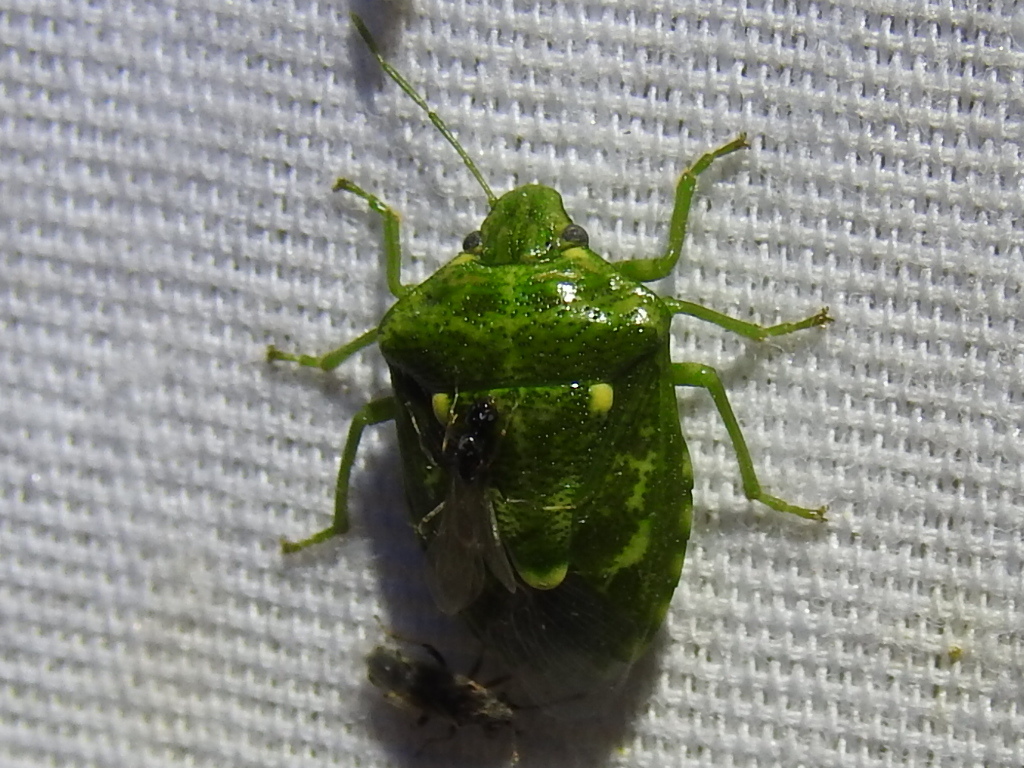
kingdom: Animalia
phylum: Arthropoda
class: Insecta
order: Hemiptera
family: Pentatomidae
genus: Banasa
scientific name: Banasa euchlora
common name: Cedar berry bug
